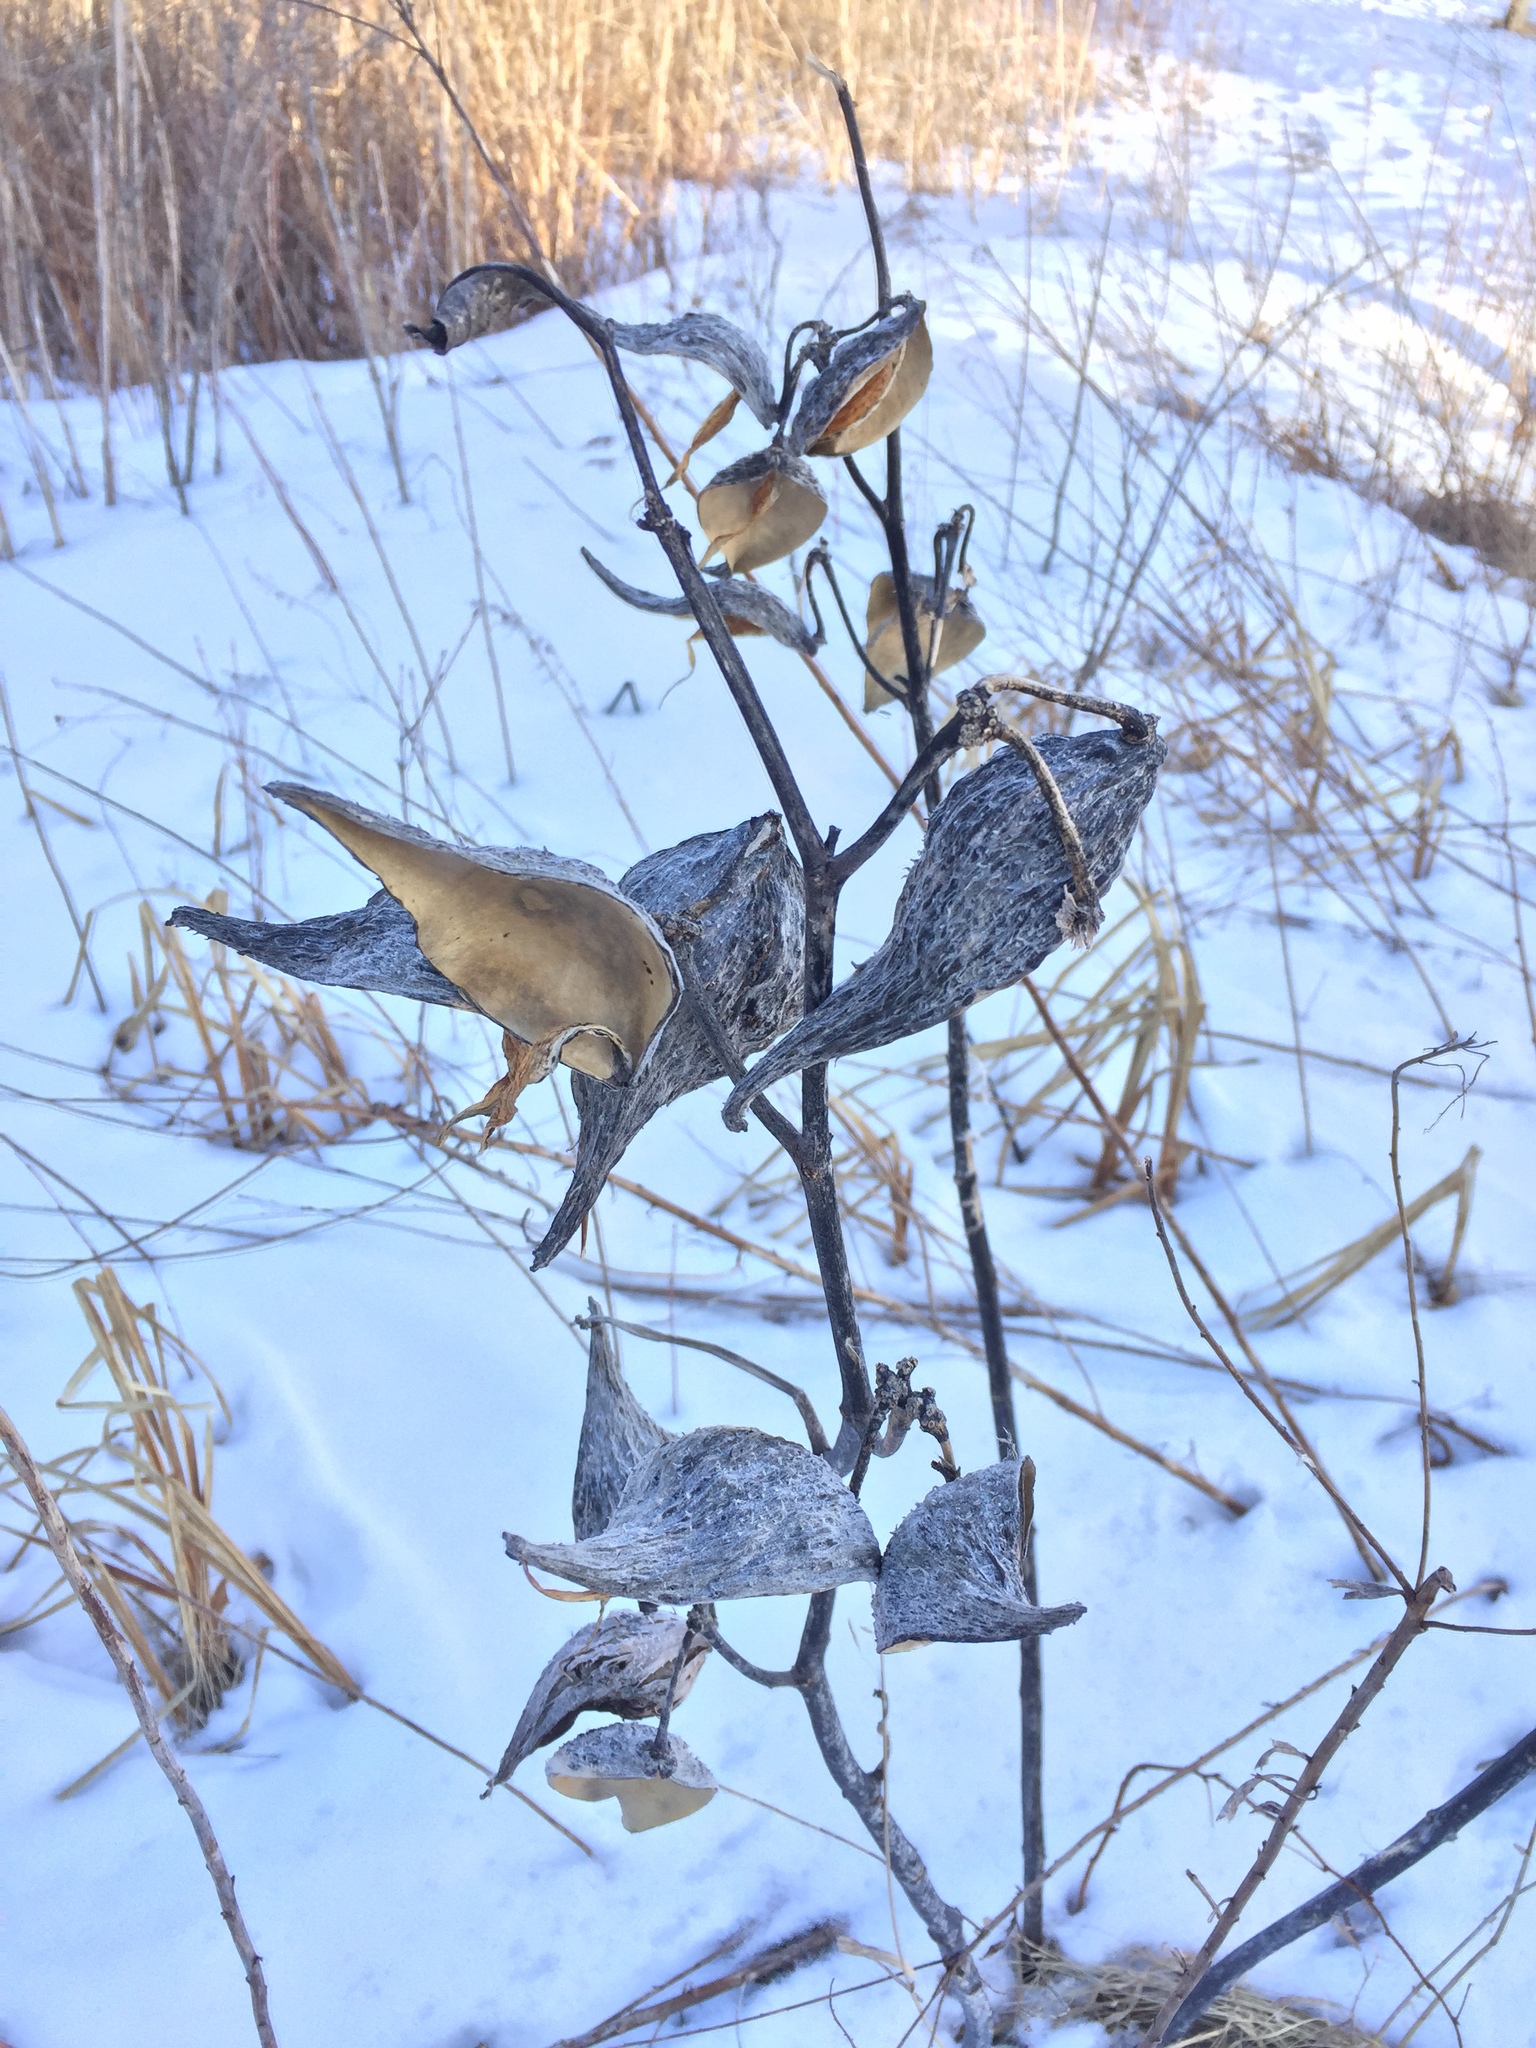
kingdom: Plantae
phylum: Tracheophyta
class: Magnoliopsida
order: Gentianales
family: Apocynaceae
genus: Asclepias
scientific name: Asclepias syriaca
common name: Common milkweed
